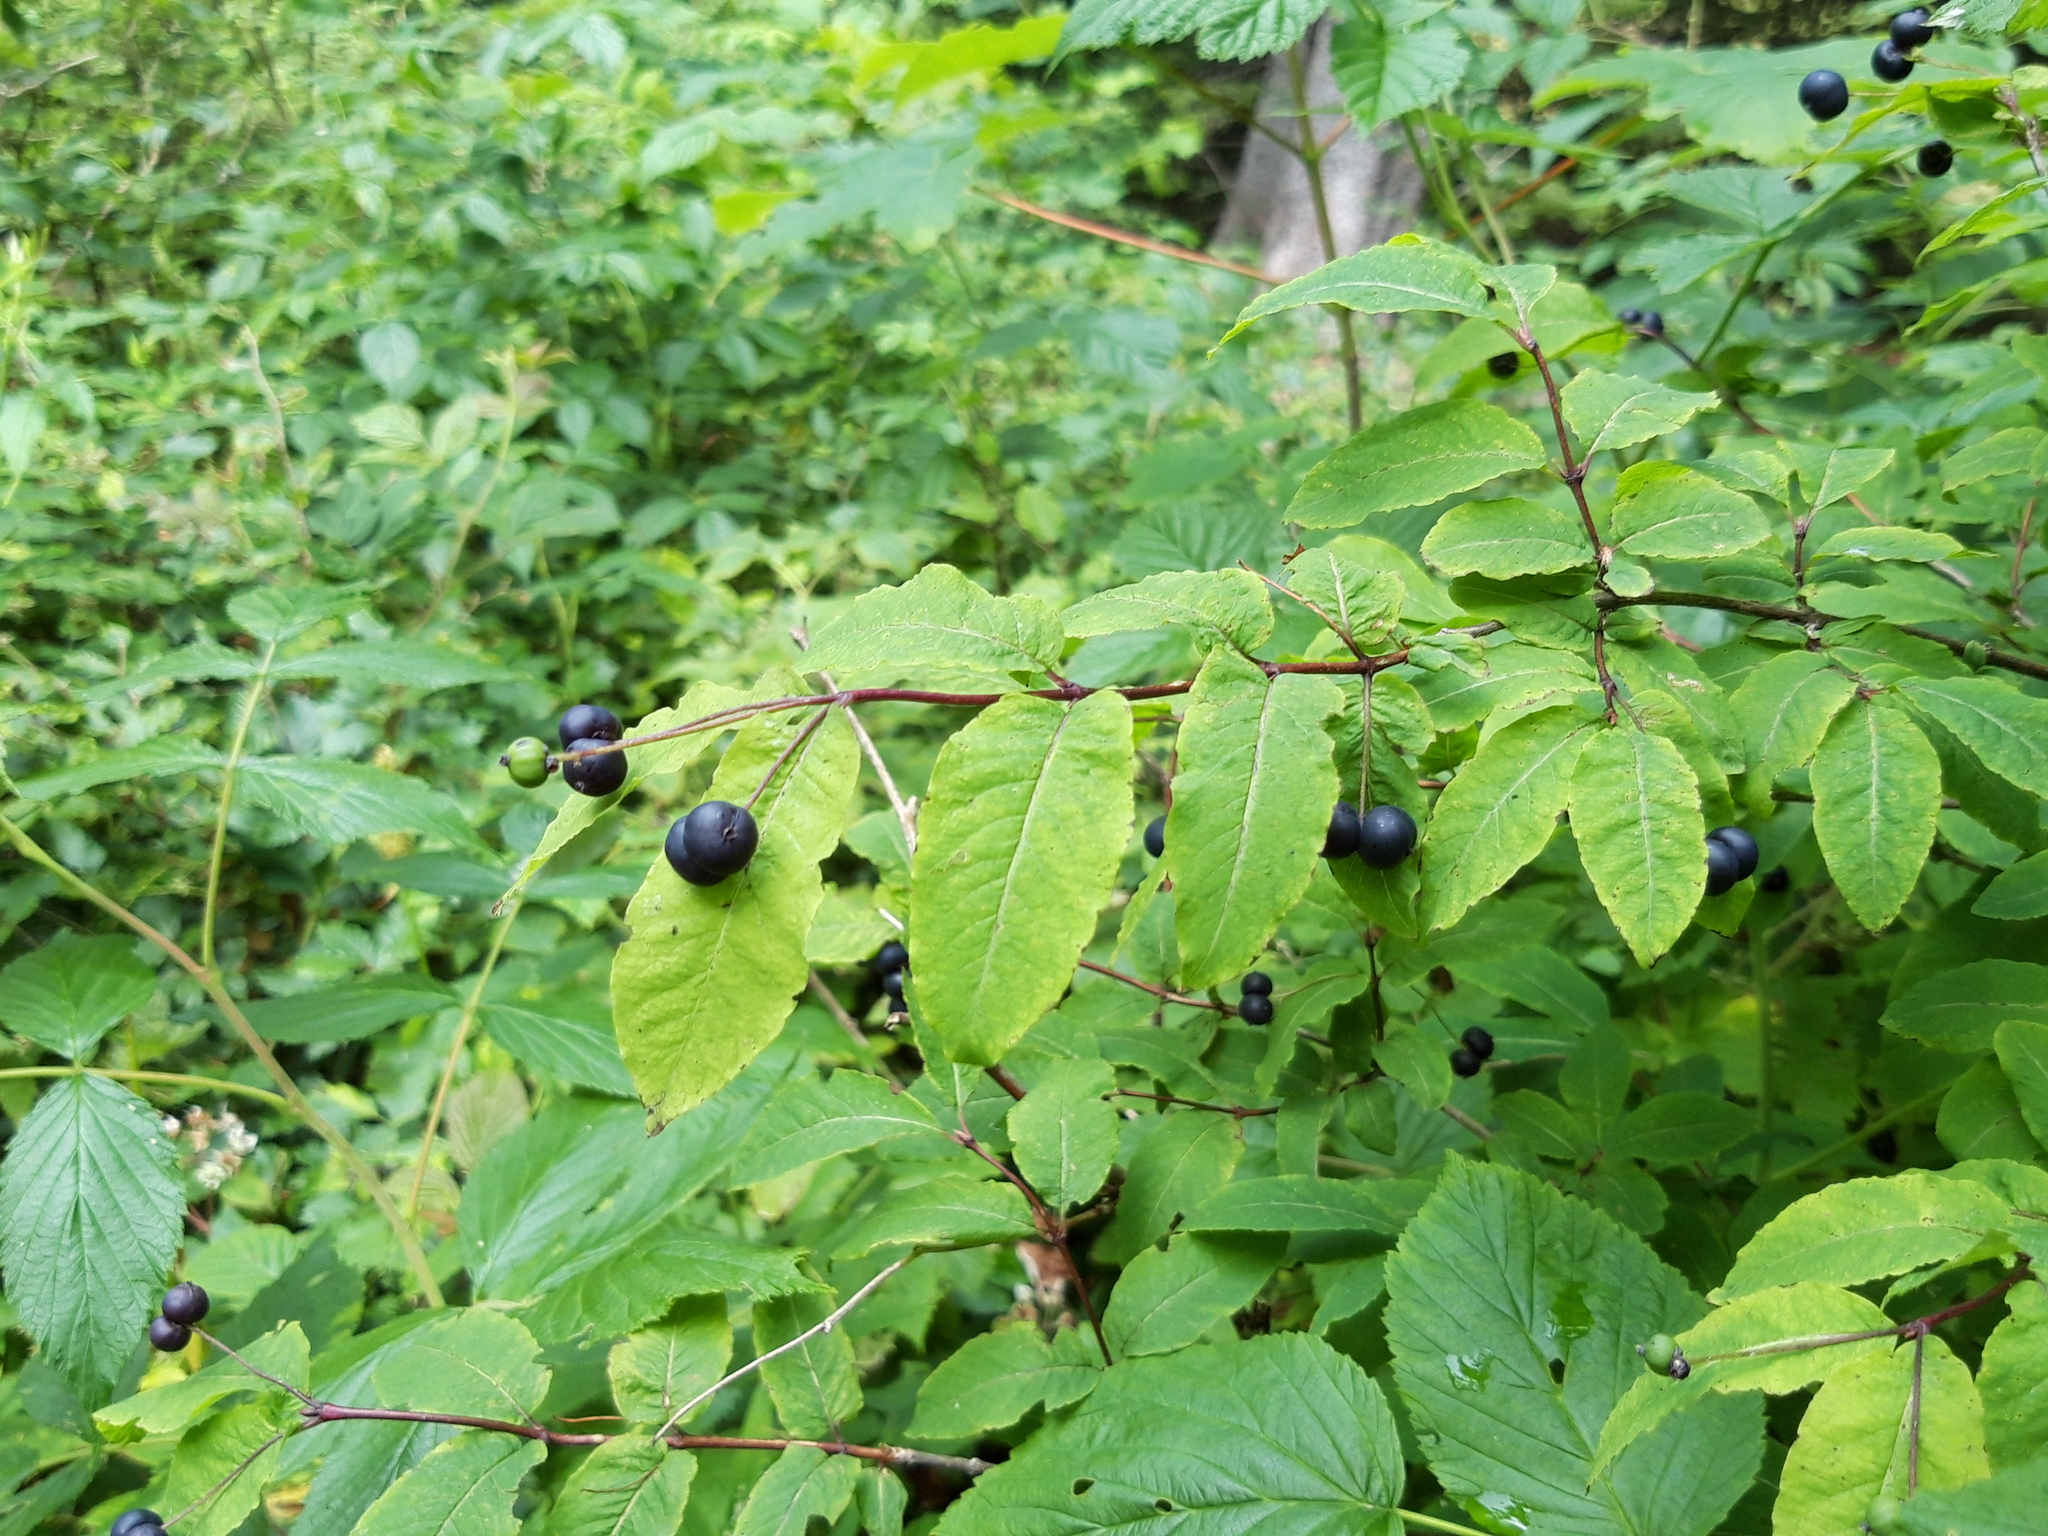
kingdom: Plantae
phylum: Tracheophyta
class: Magnoliopsida
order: Dipsacales
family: Caprifoliaceae
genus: Lonicera
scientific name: Lonicera nigra
